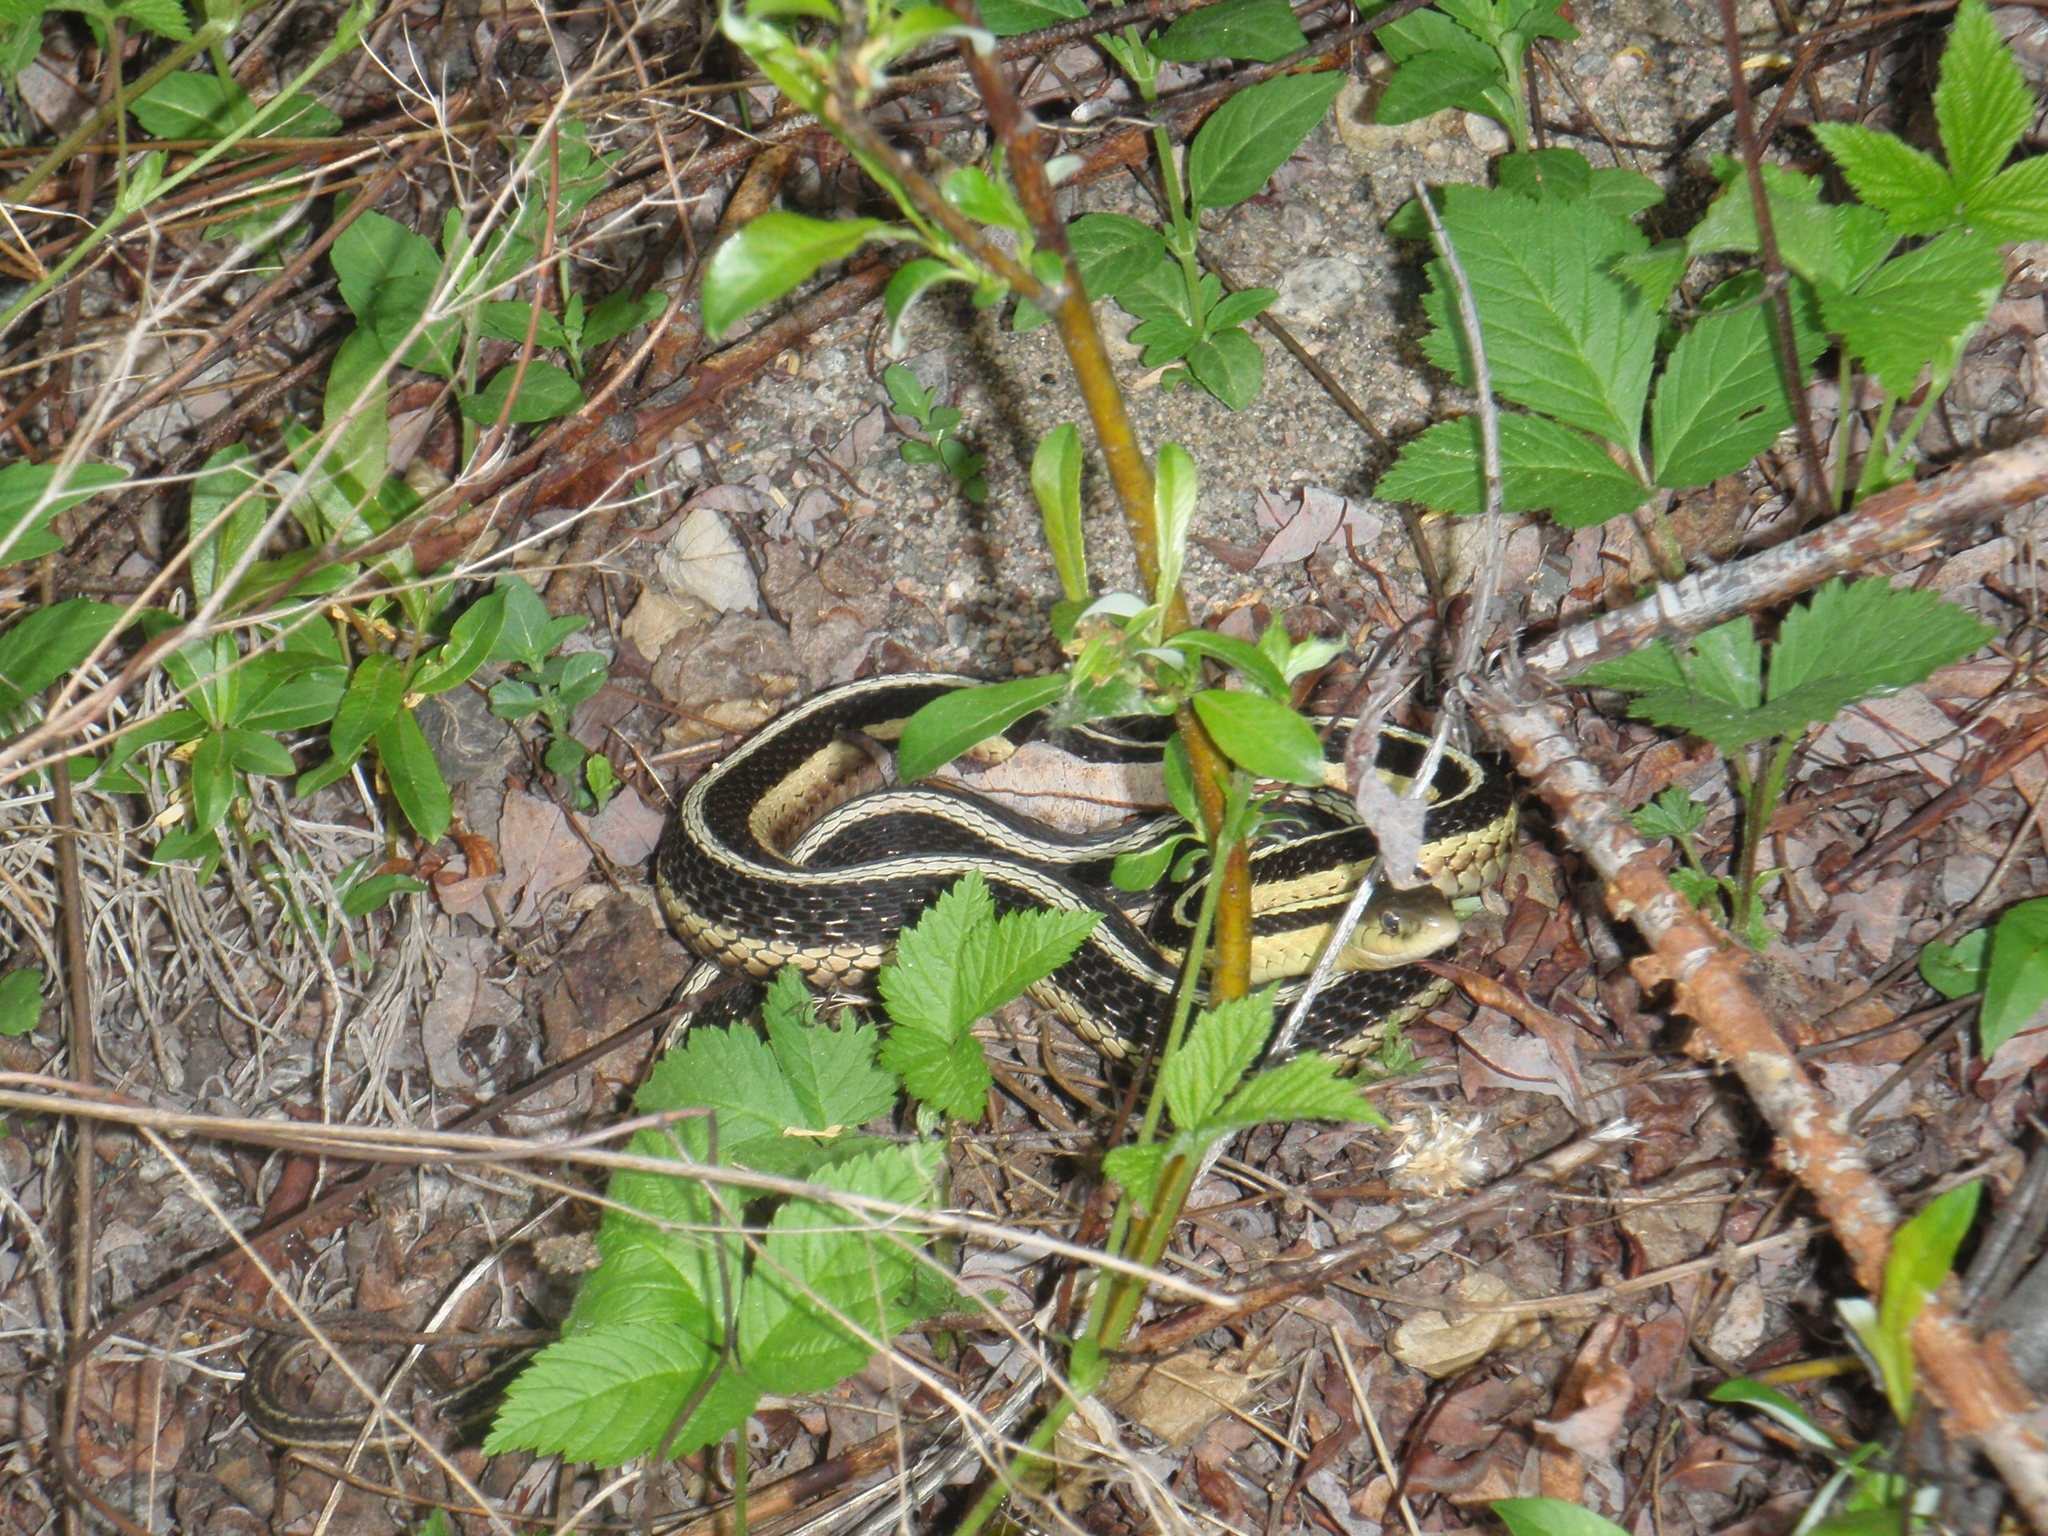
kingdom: Animalia
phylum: Chordata
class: Squamata
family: Colubridae
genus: Thamnophis
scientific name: Thamnophis sirtalis
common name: Common garter snake
